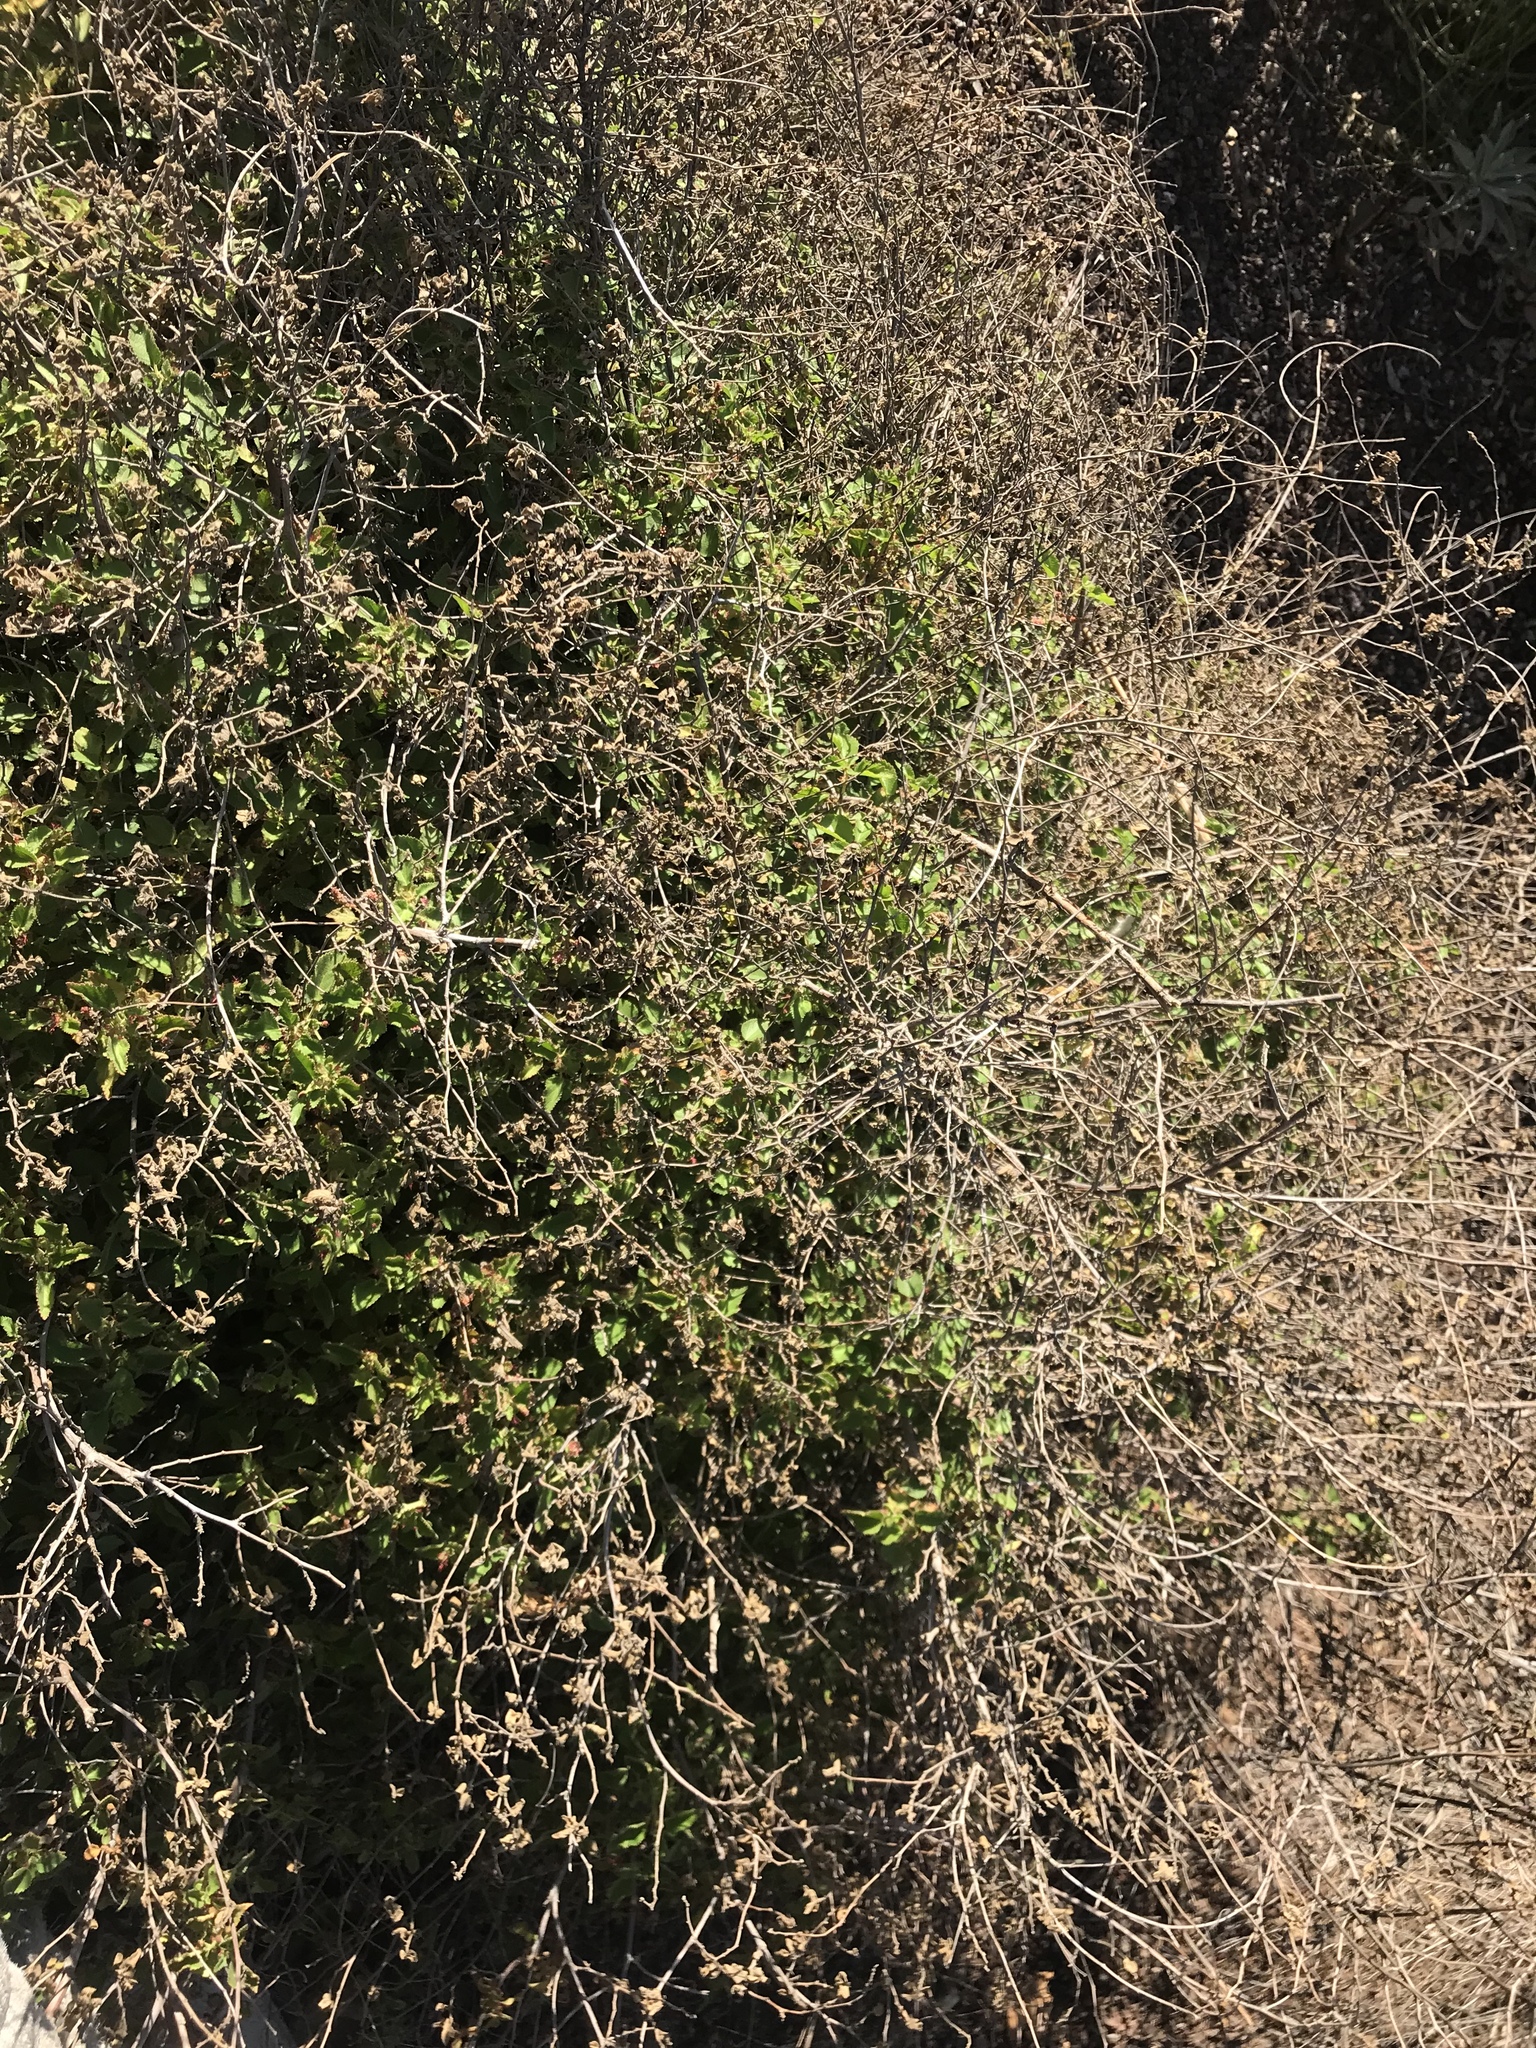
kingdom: Plantae
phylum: Tracheophyta
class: Magnoliopsida
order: Malpighiales
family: Euphorbiaceae
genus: Acalypha
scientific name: Acalypha californica
